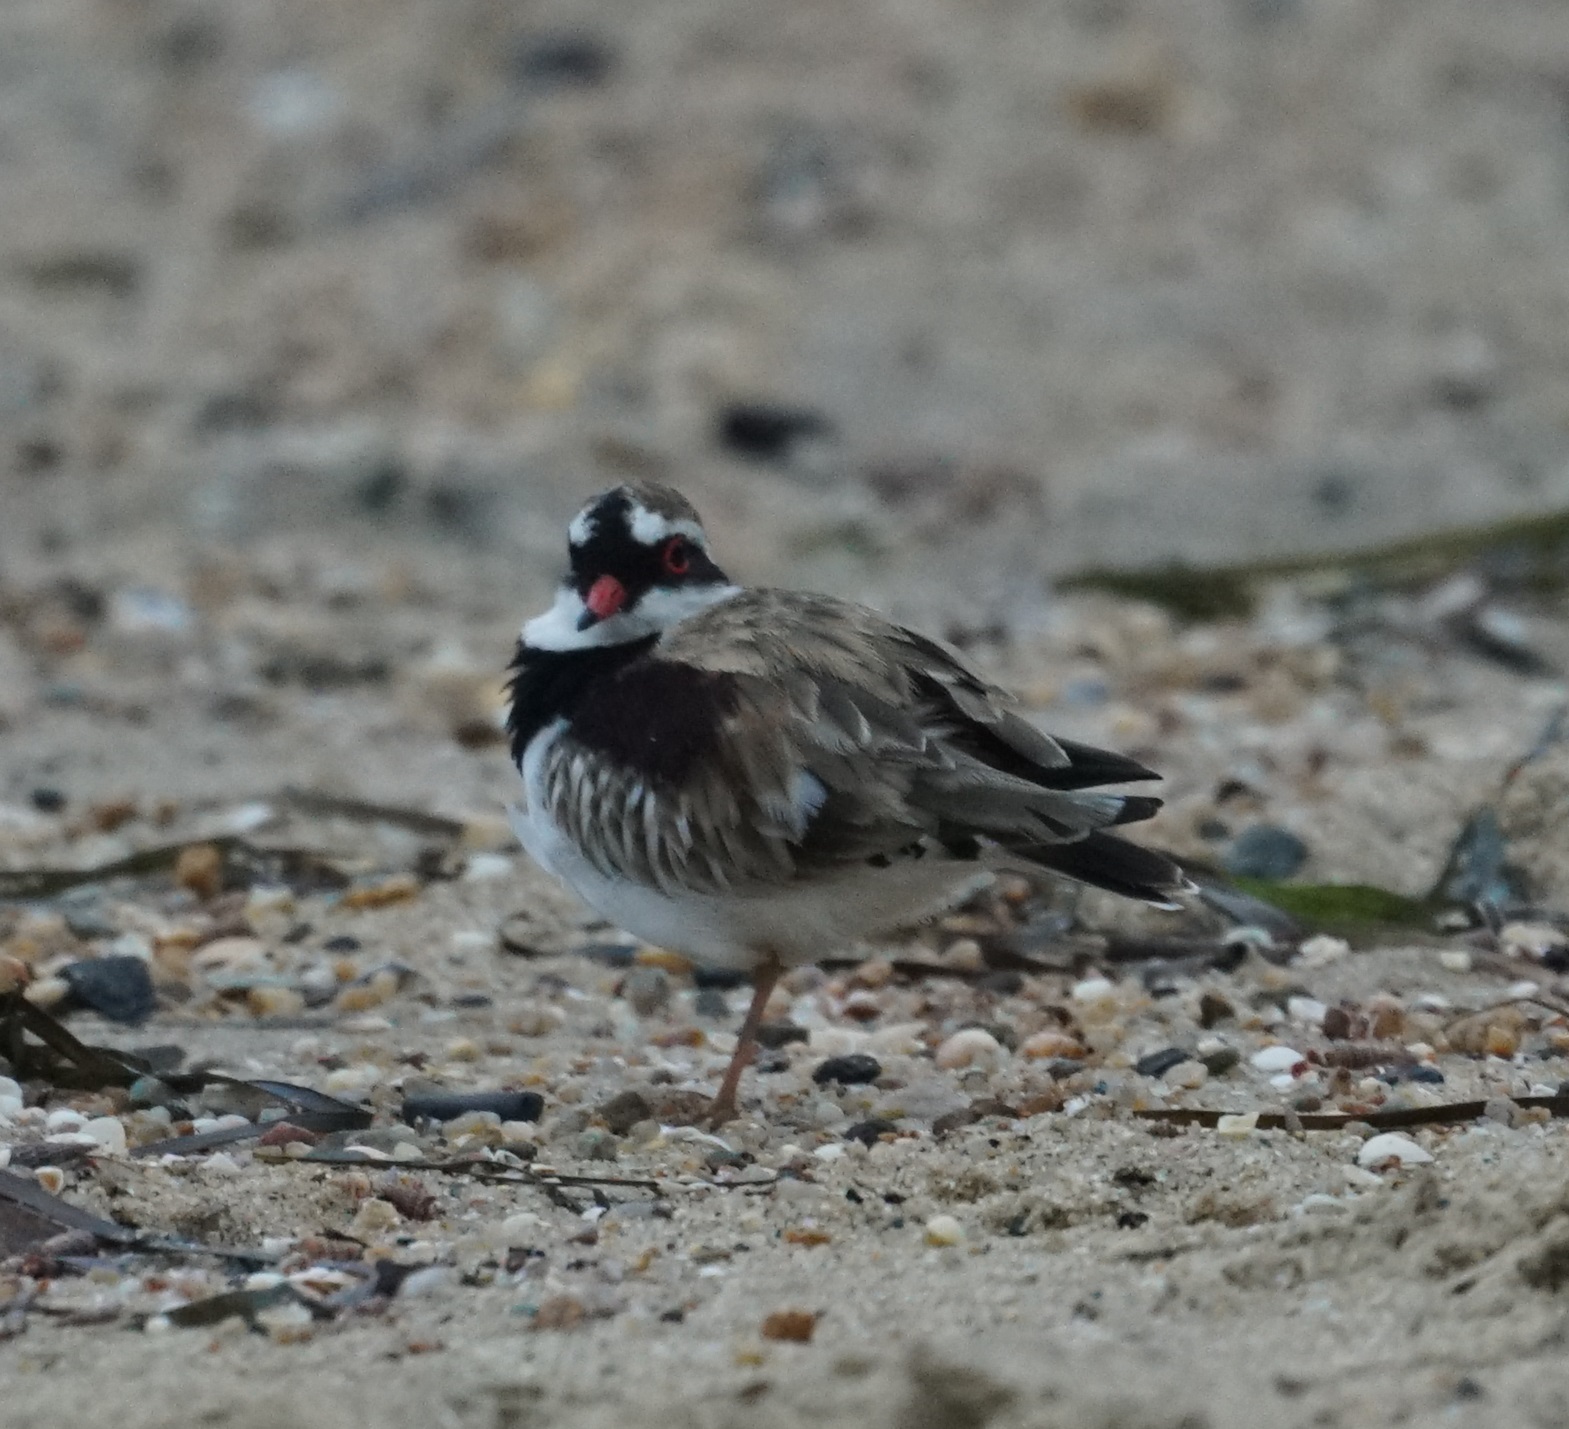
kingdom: Animalia
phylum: Chordata
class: Aves
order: Charadriiformes
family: Charadriidae
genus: Elseyornis
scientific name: Elseyornis melanops
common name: Black-fronted dotterel
